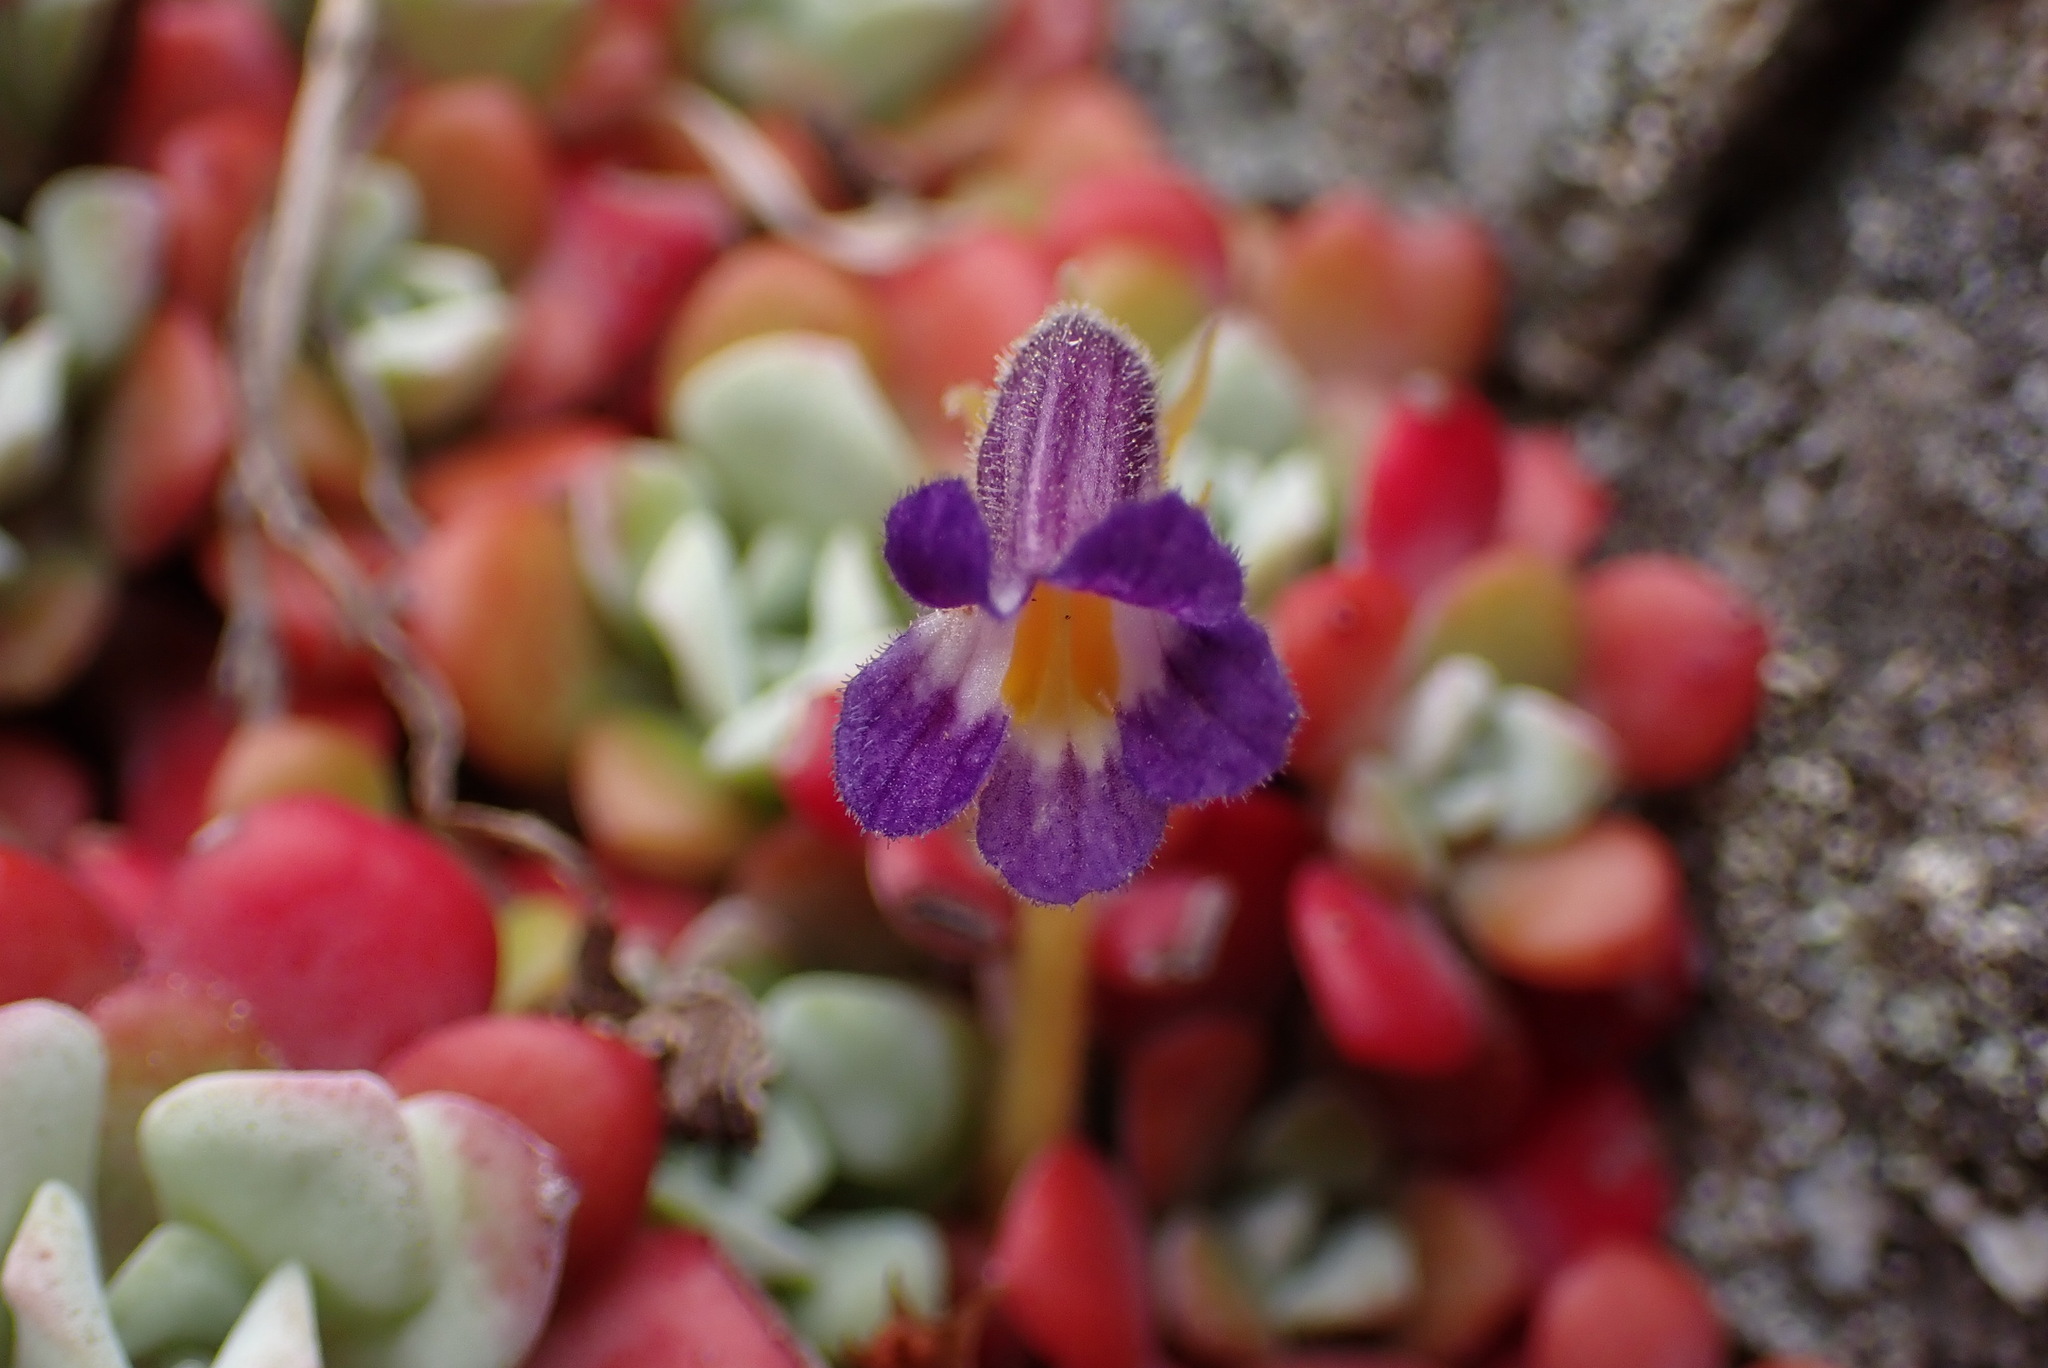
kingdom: Plantae
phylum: Tracheophyta
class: Magnoliopsida
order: Lamiales
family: Orobanchaceae
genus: Aphyllon
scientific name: Aphyllon uniflorum
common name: One-flowered broomrape
